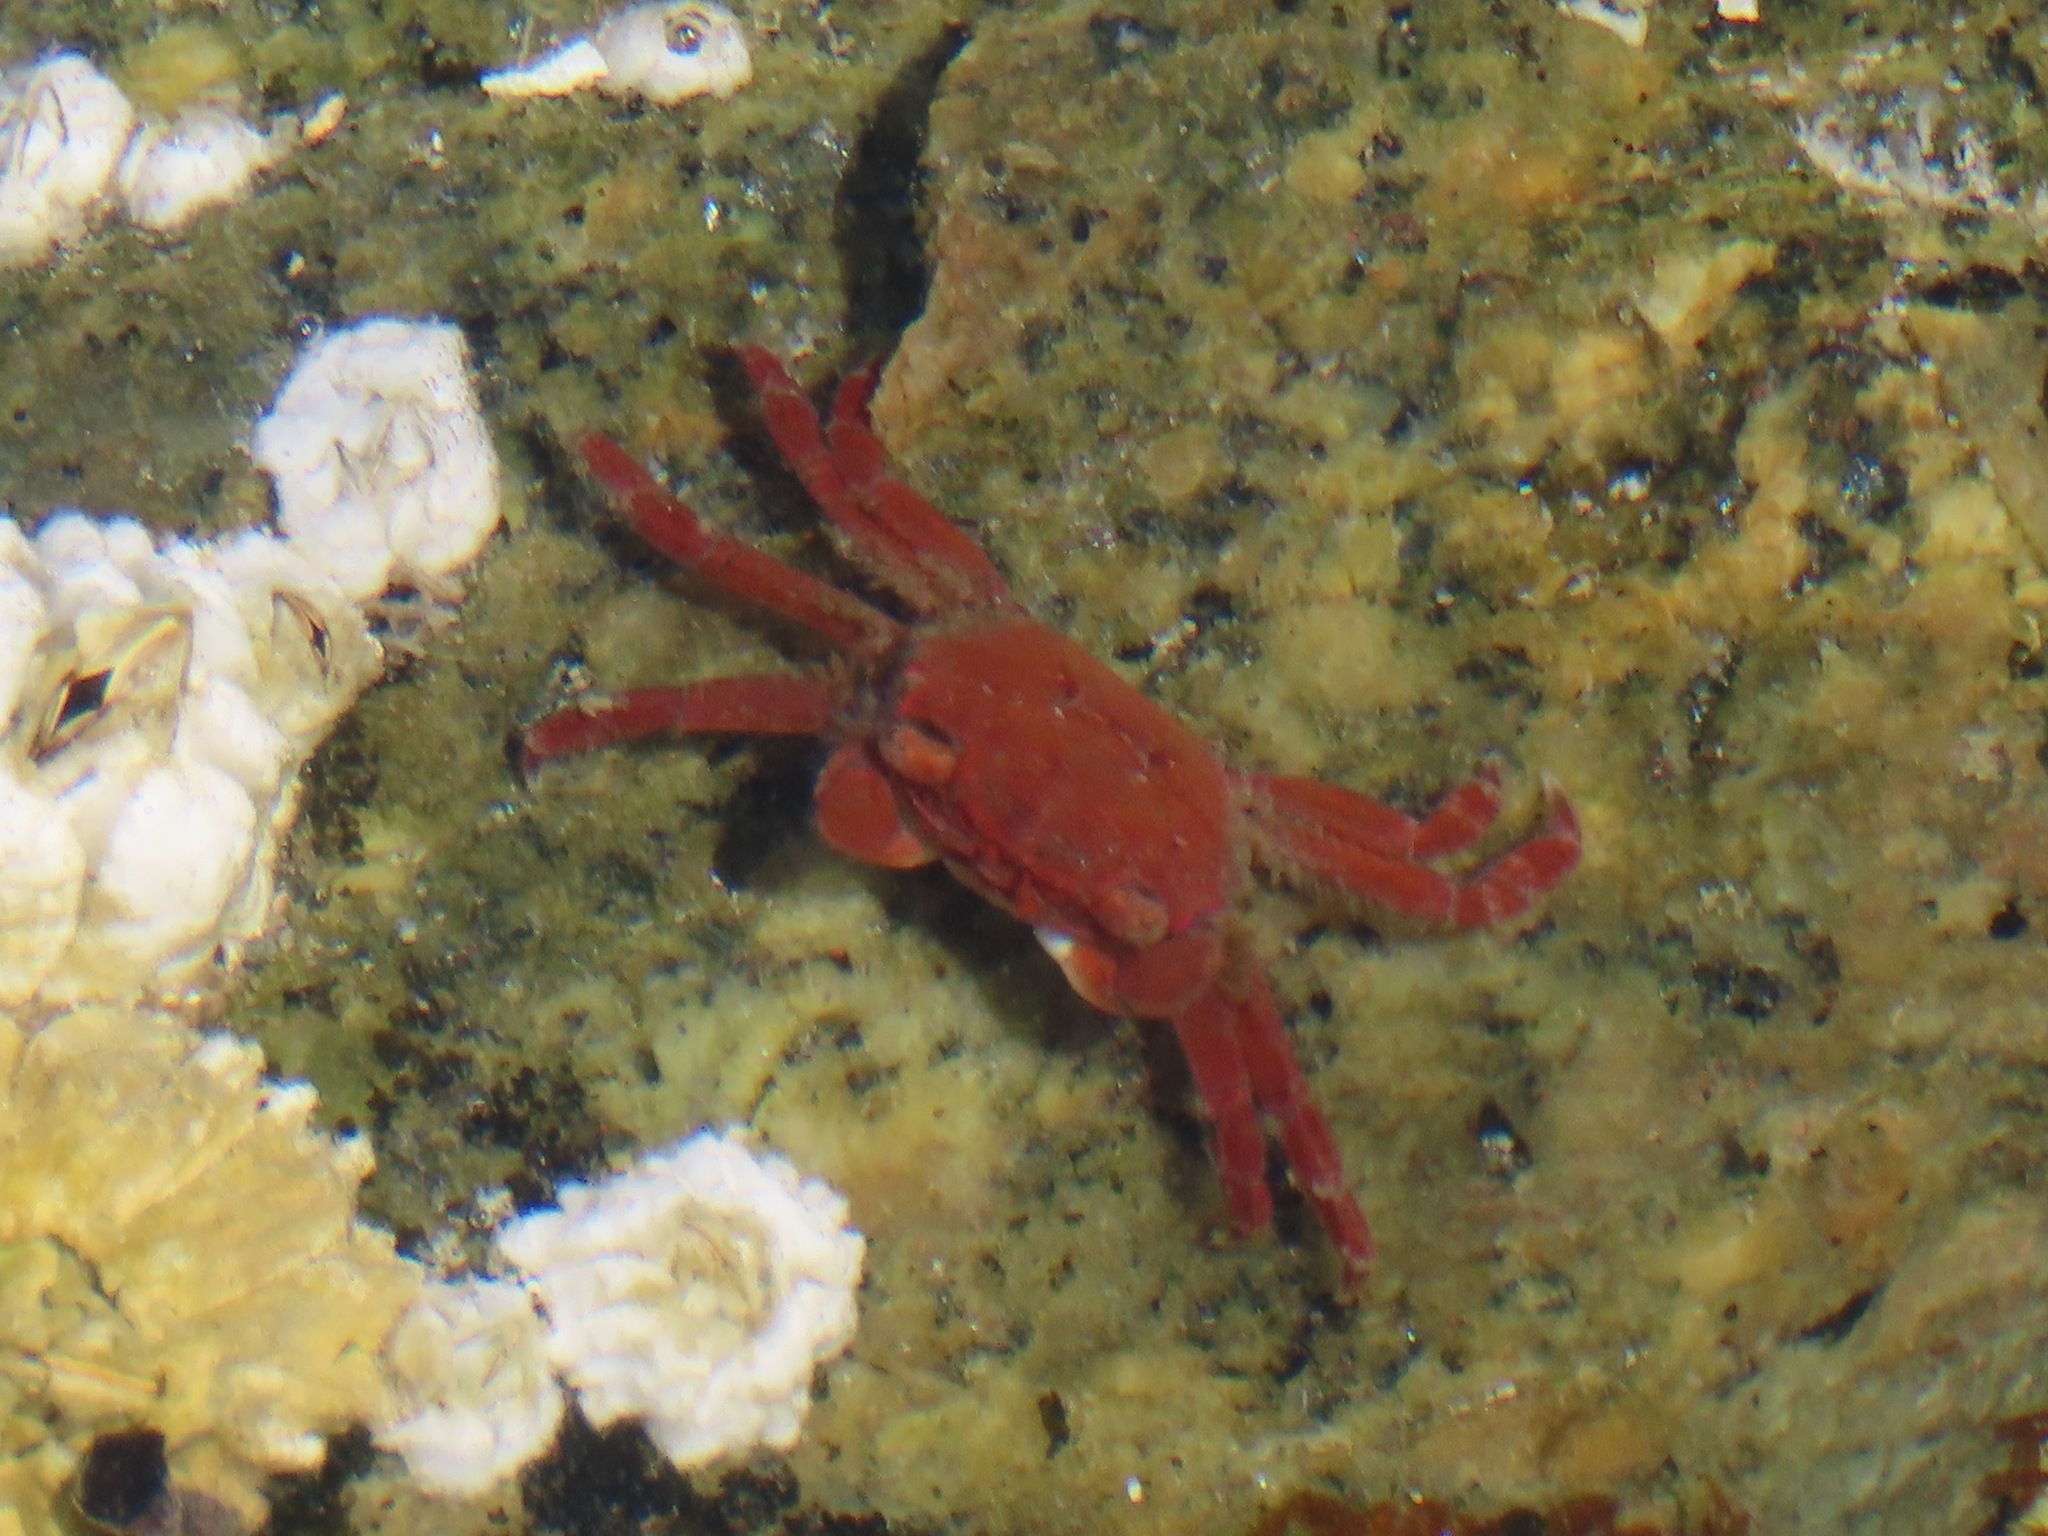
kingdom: Animalia
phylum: Arthropoda
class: Malacostraca
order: Decapoda
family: Varunidae
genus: Hemigrapsus
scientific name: Hemigrapsus oregonensis
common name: Yellow shore crab
